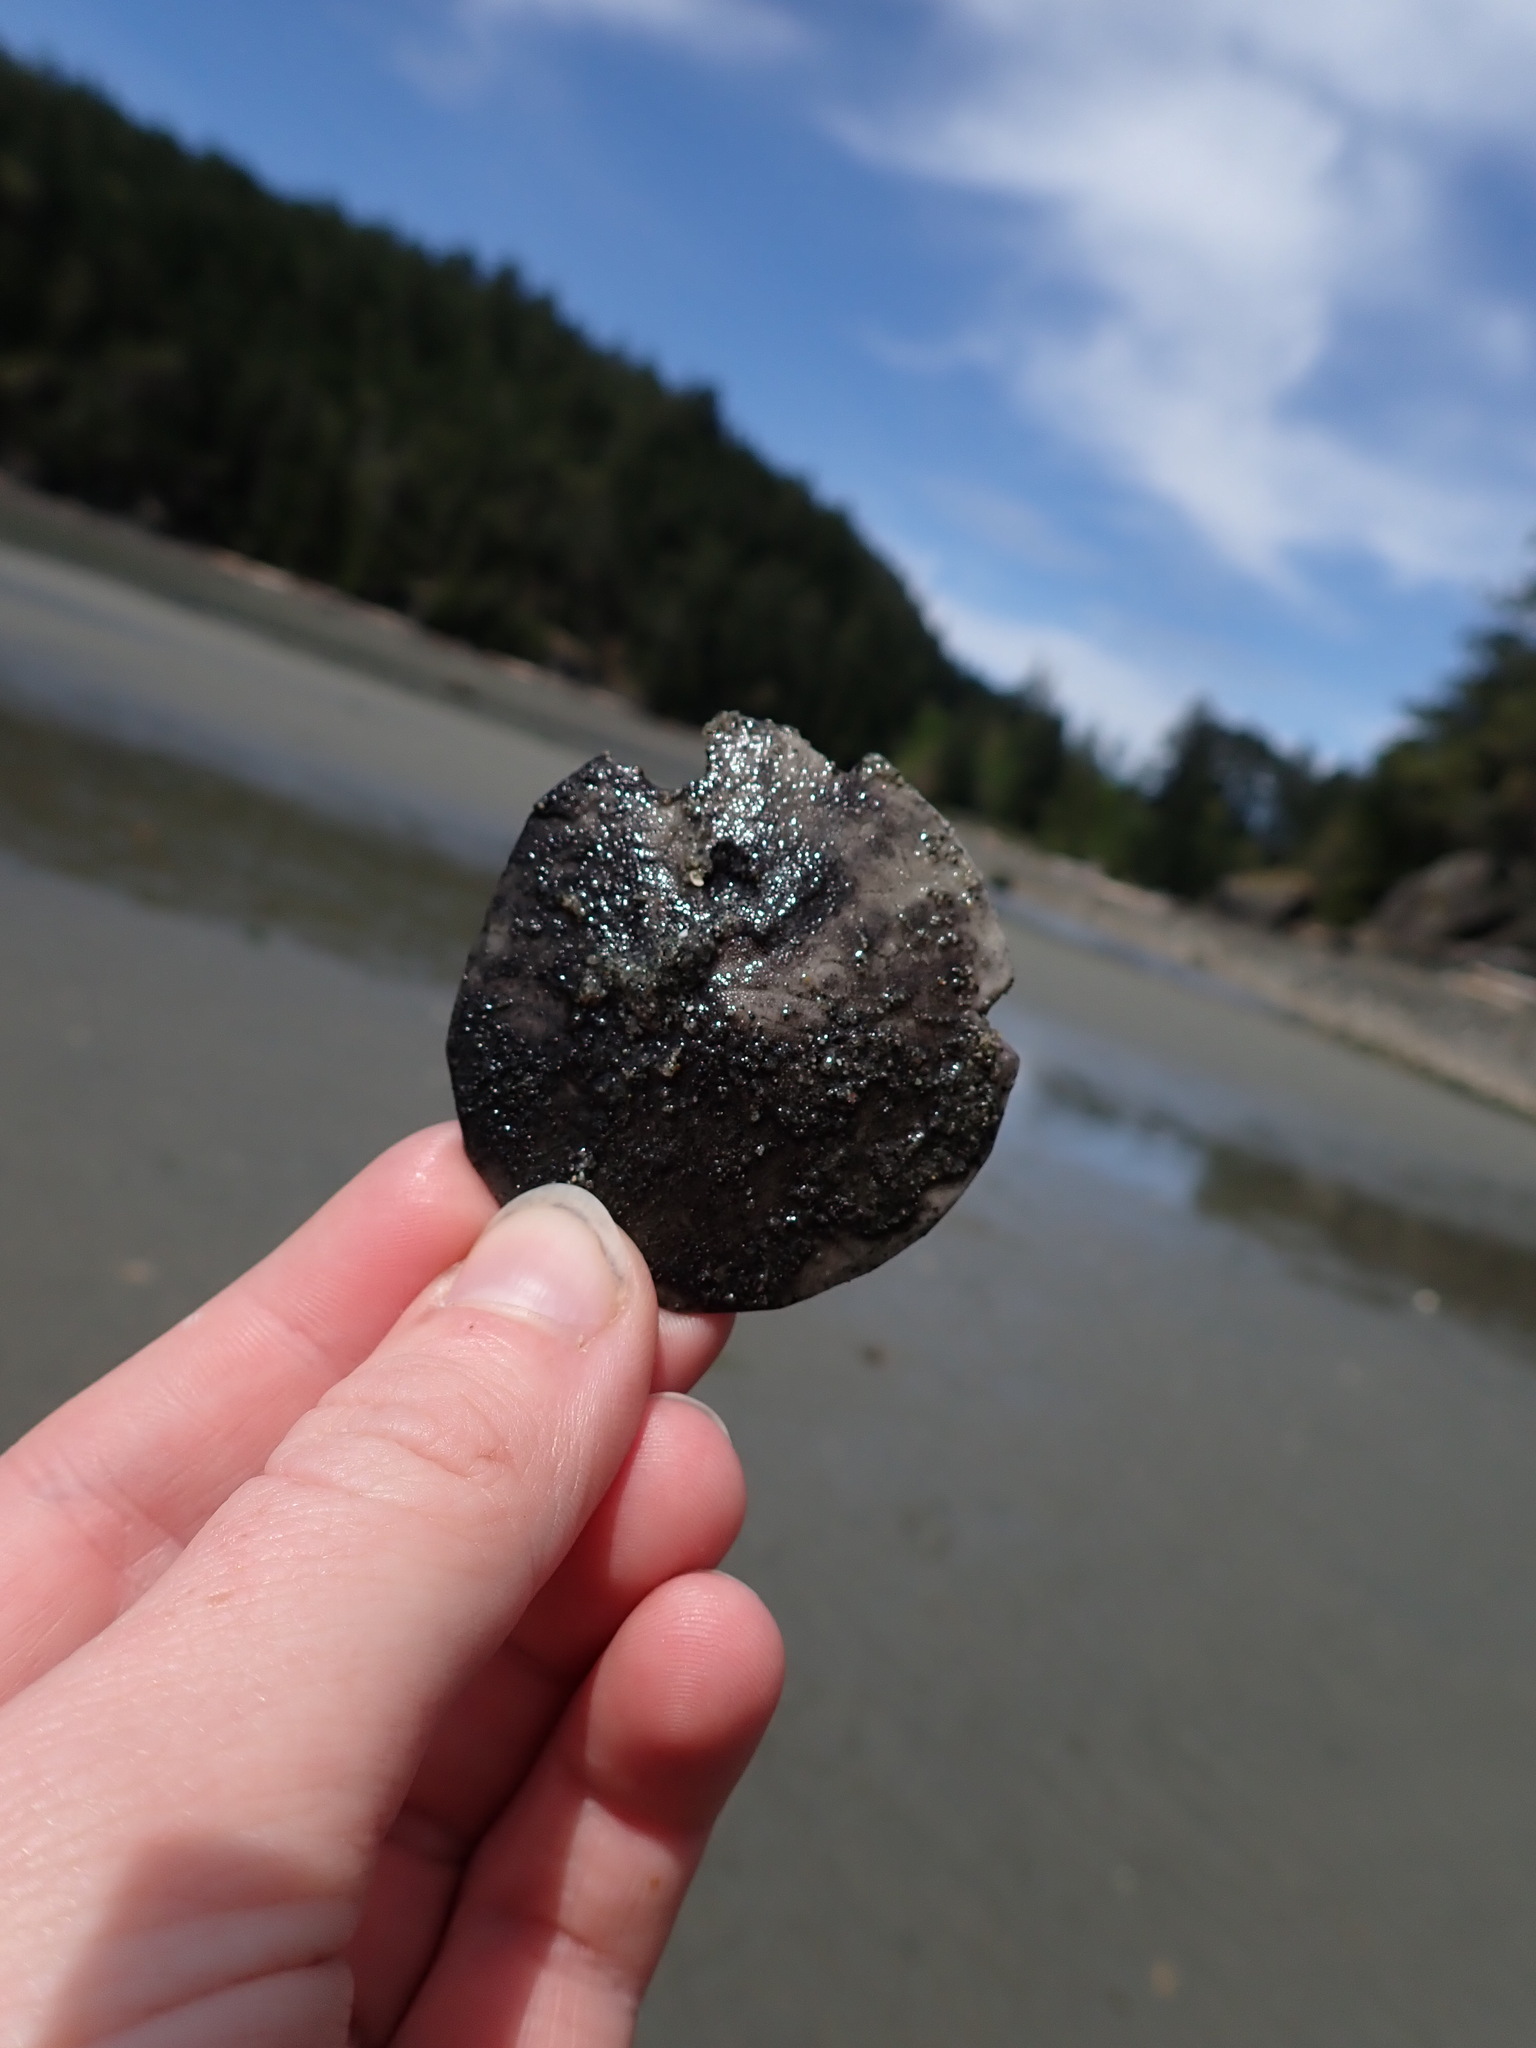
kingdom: Animalia
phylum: Echinodermata
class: Echinoidea
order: Echinolampadacea
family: Dendrasteridae
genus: Dendraster
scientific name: Dendraster excentricus
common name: Eccentric sand dollar sea urchin
